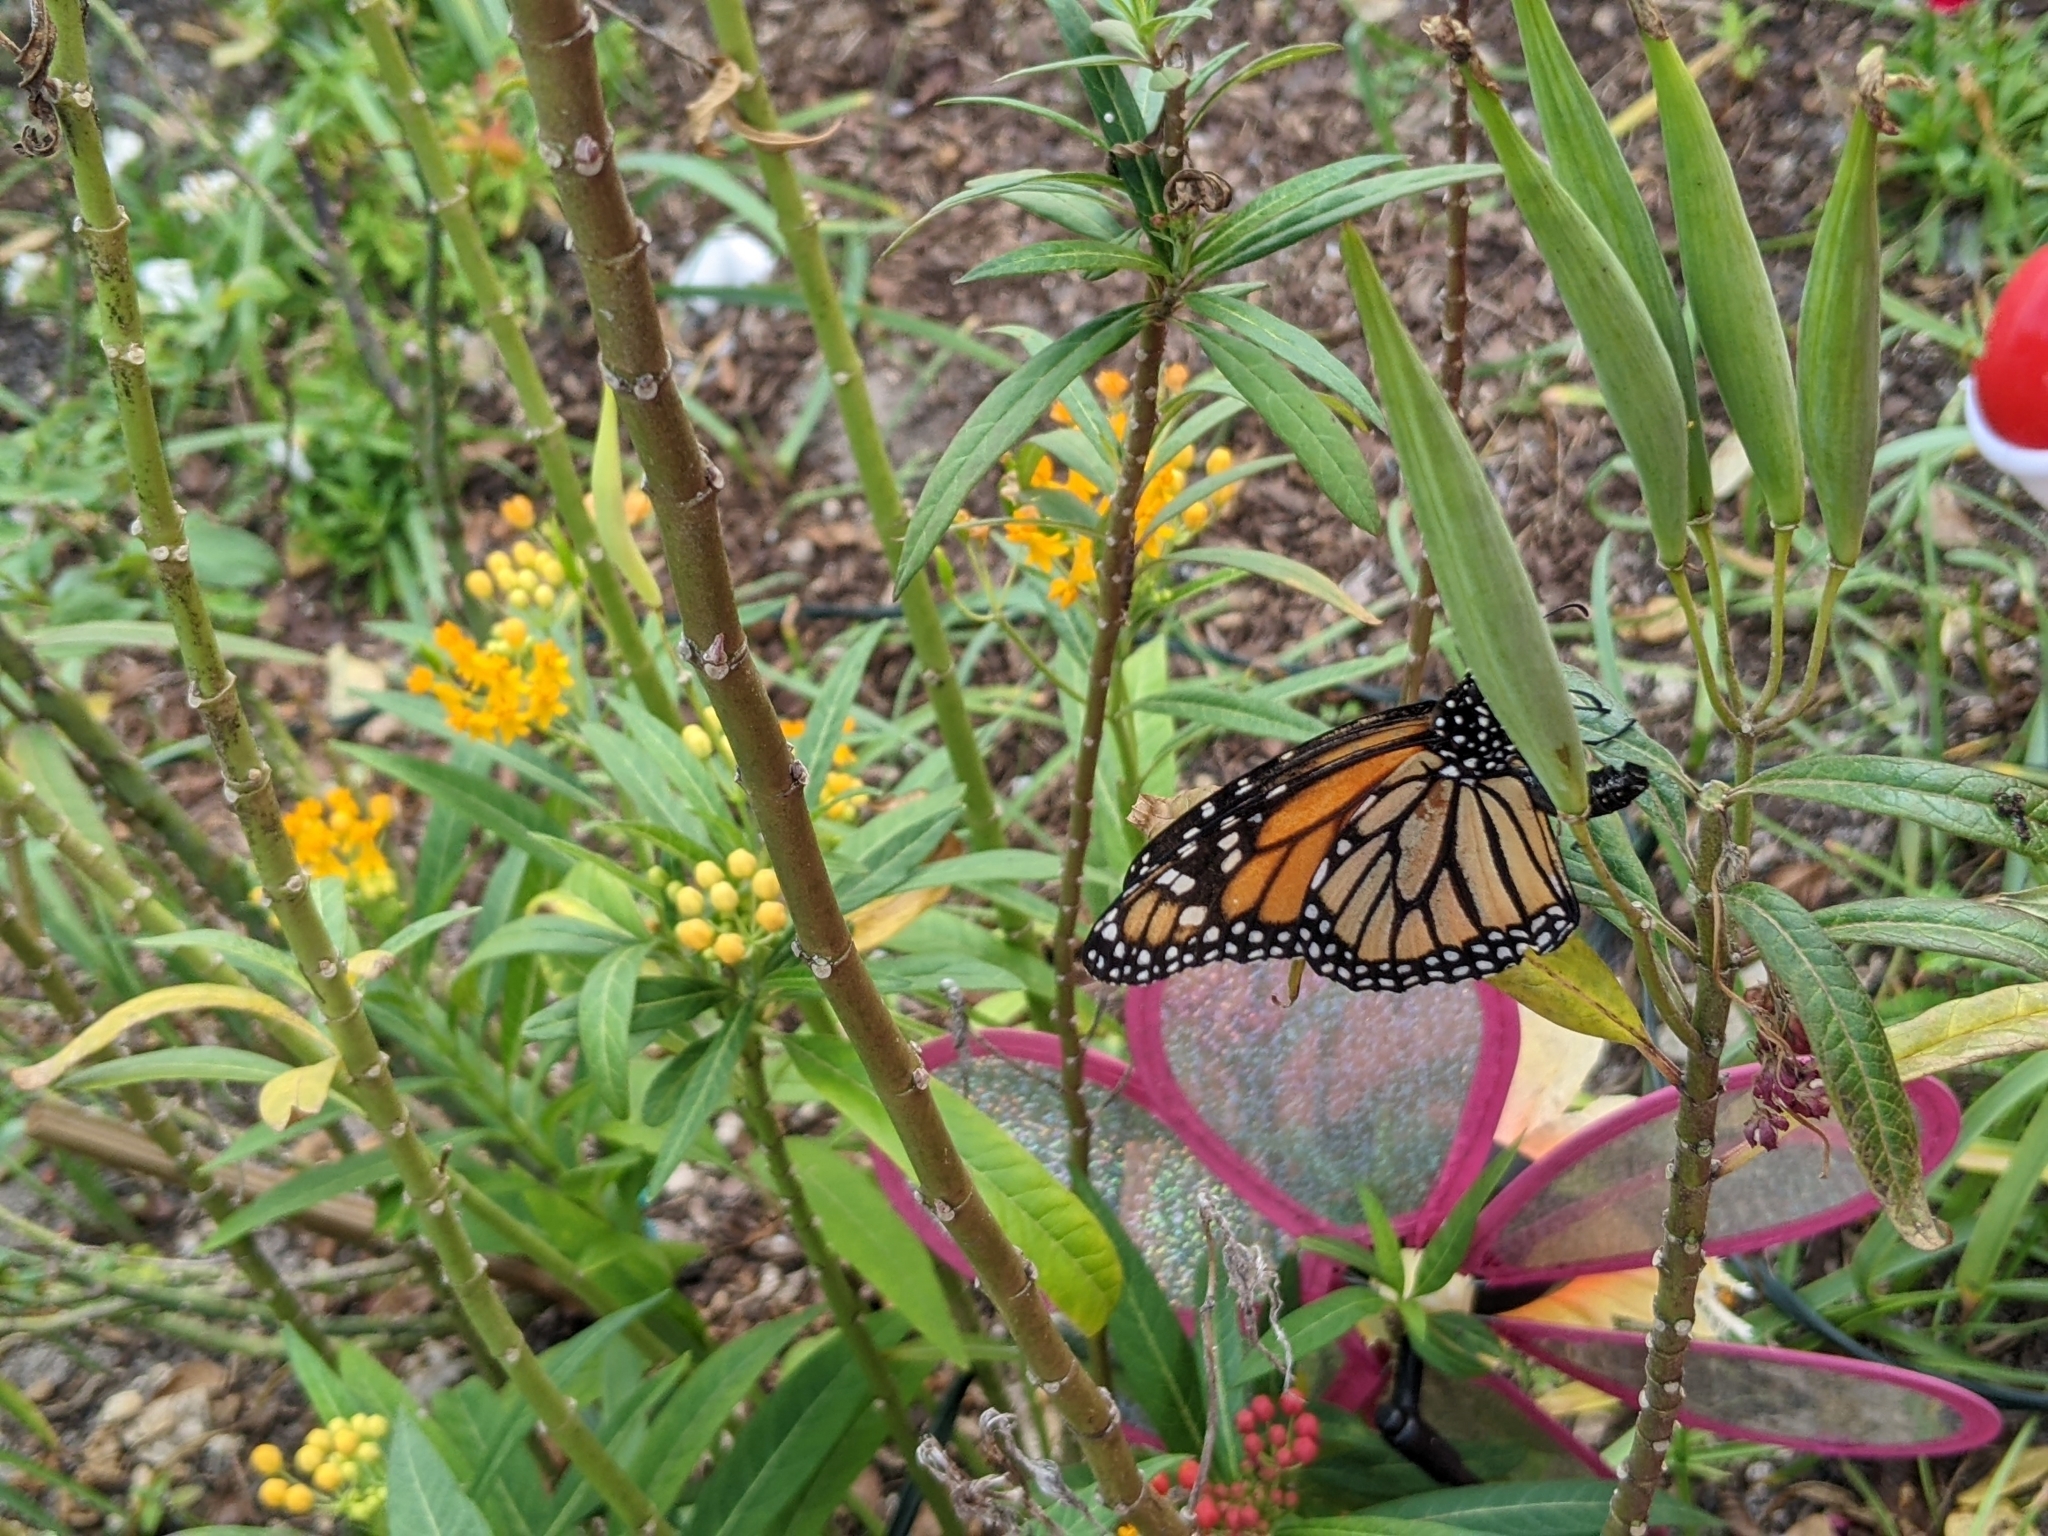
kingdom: Animalia
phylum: Arthropoda
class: Insecta
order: Lepidoptera
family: Nymphalidae
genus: Danaus
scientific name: Danaus plexippus
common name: Monarch
